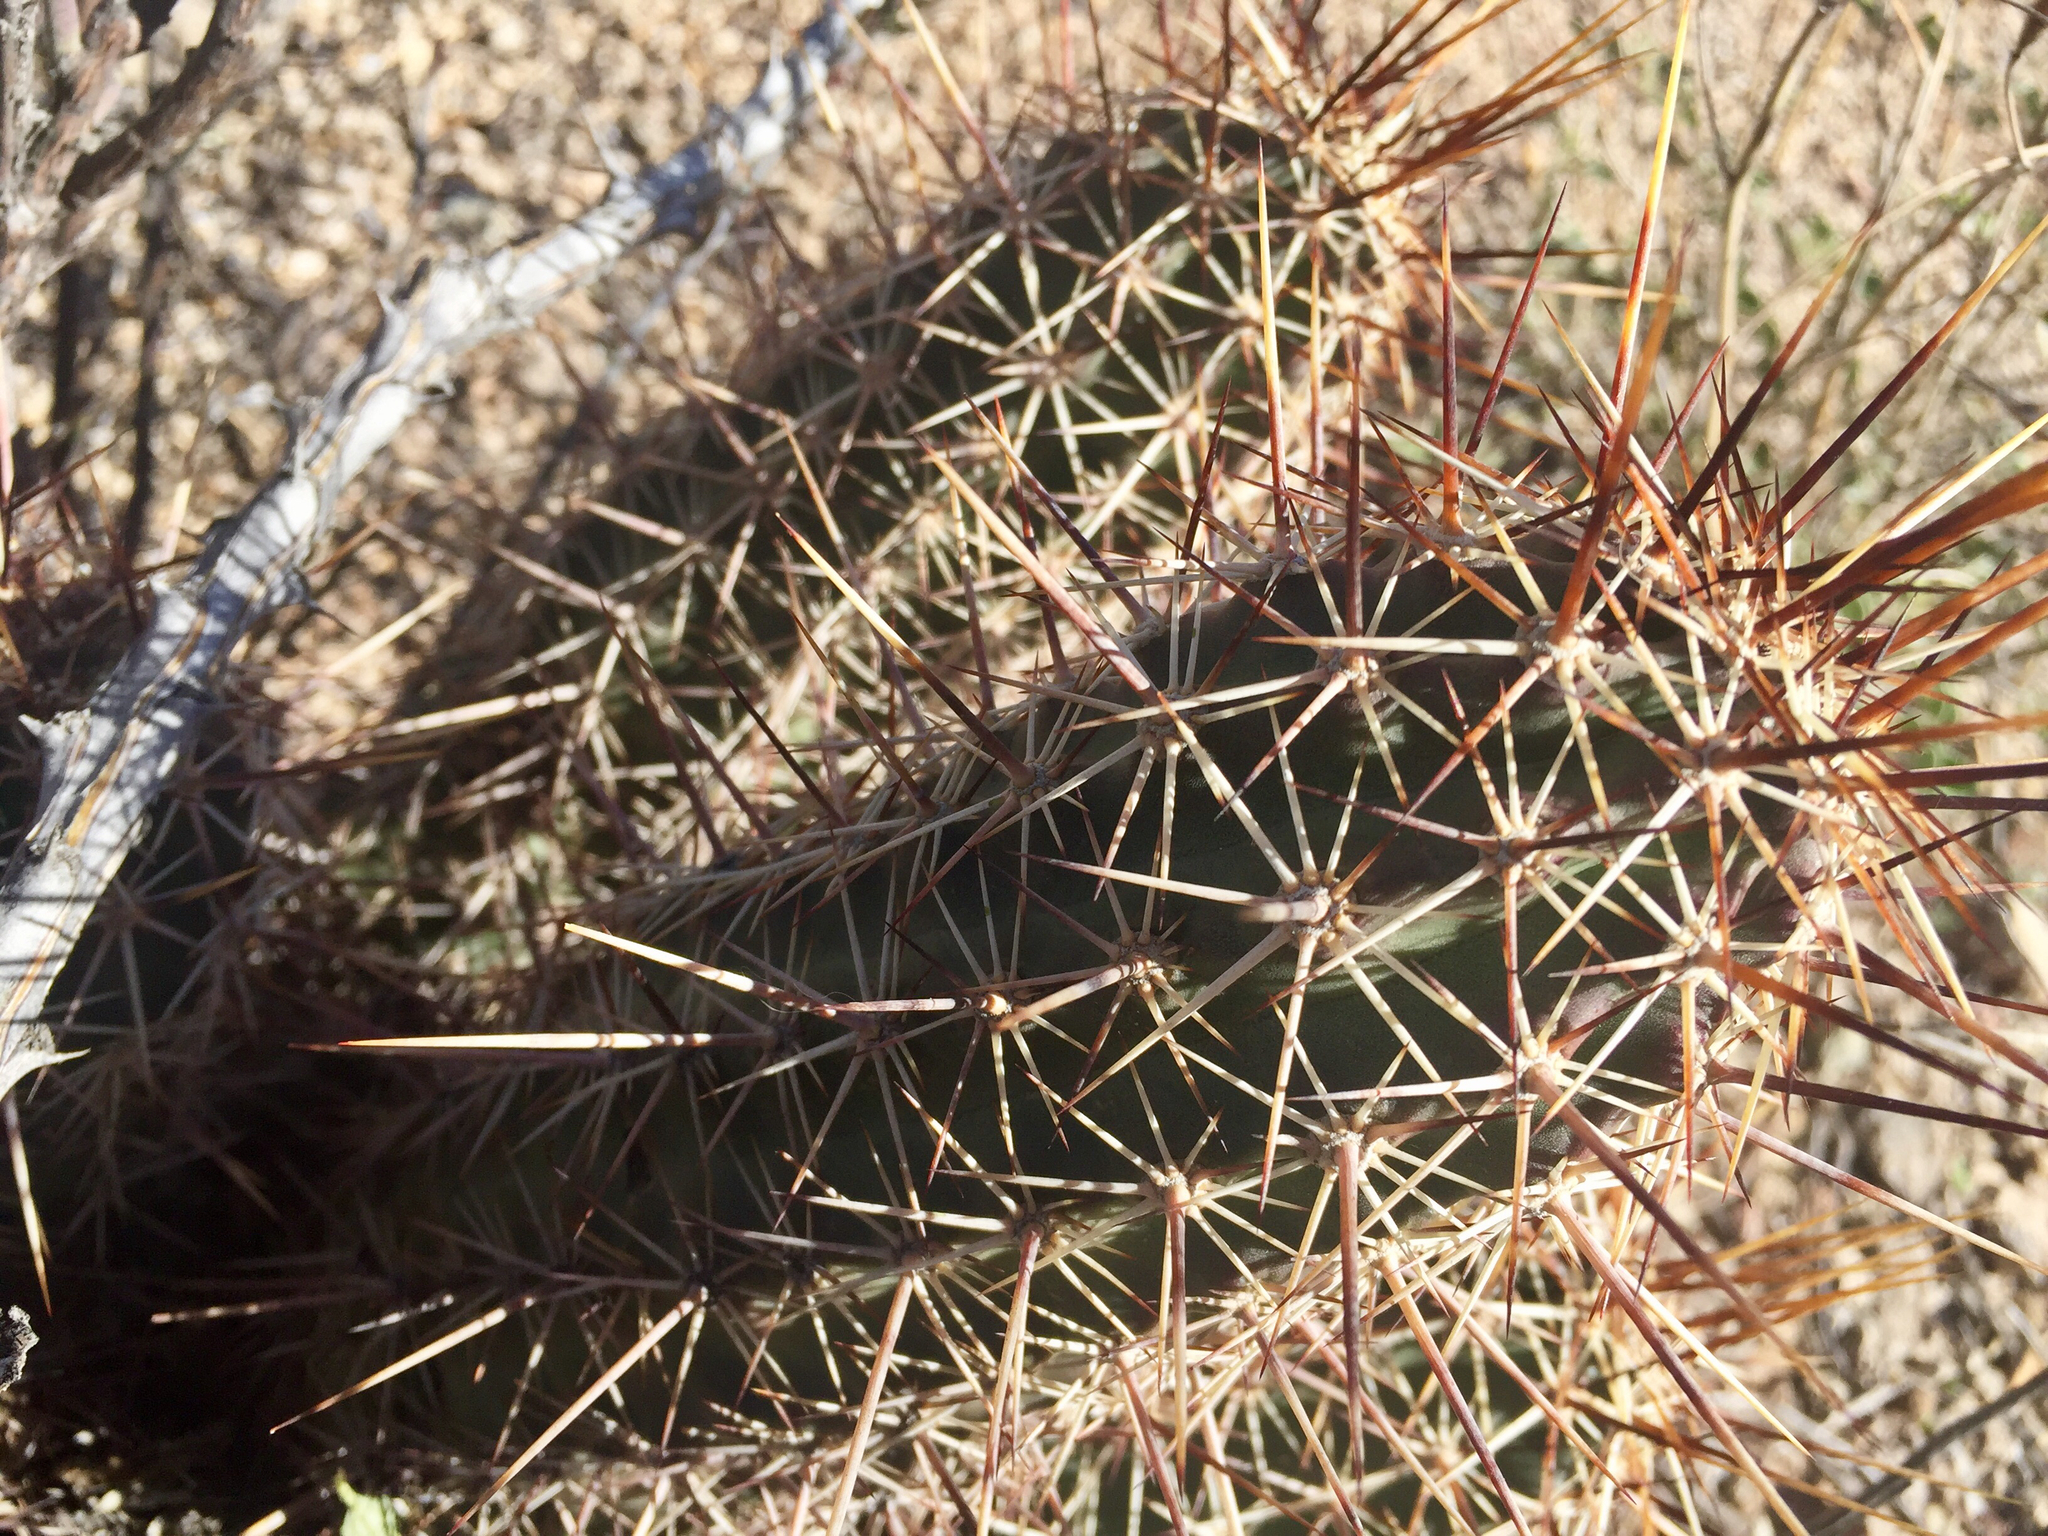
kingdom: Plantae
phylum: Tracheophyta
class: Magnoliopsida
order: Caryophyllales
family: Cactaceae
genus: Echinocereus
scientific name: Echinocereus fasciculatus
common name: Bundle hedgehog
